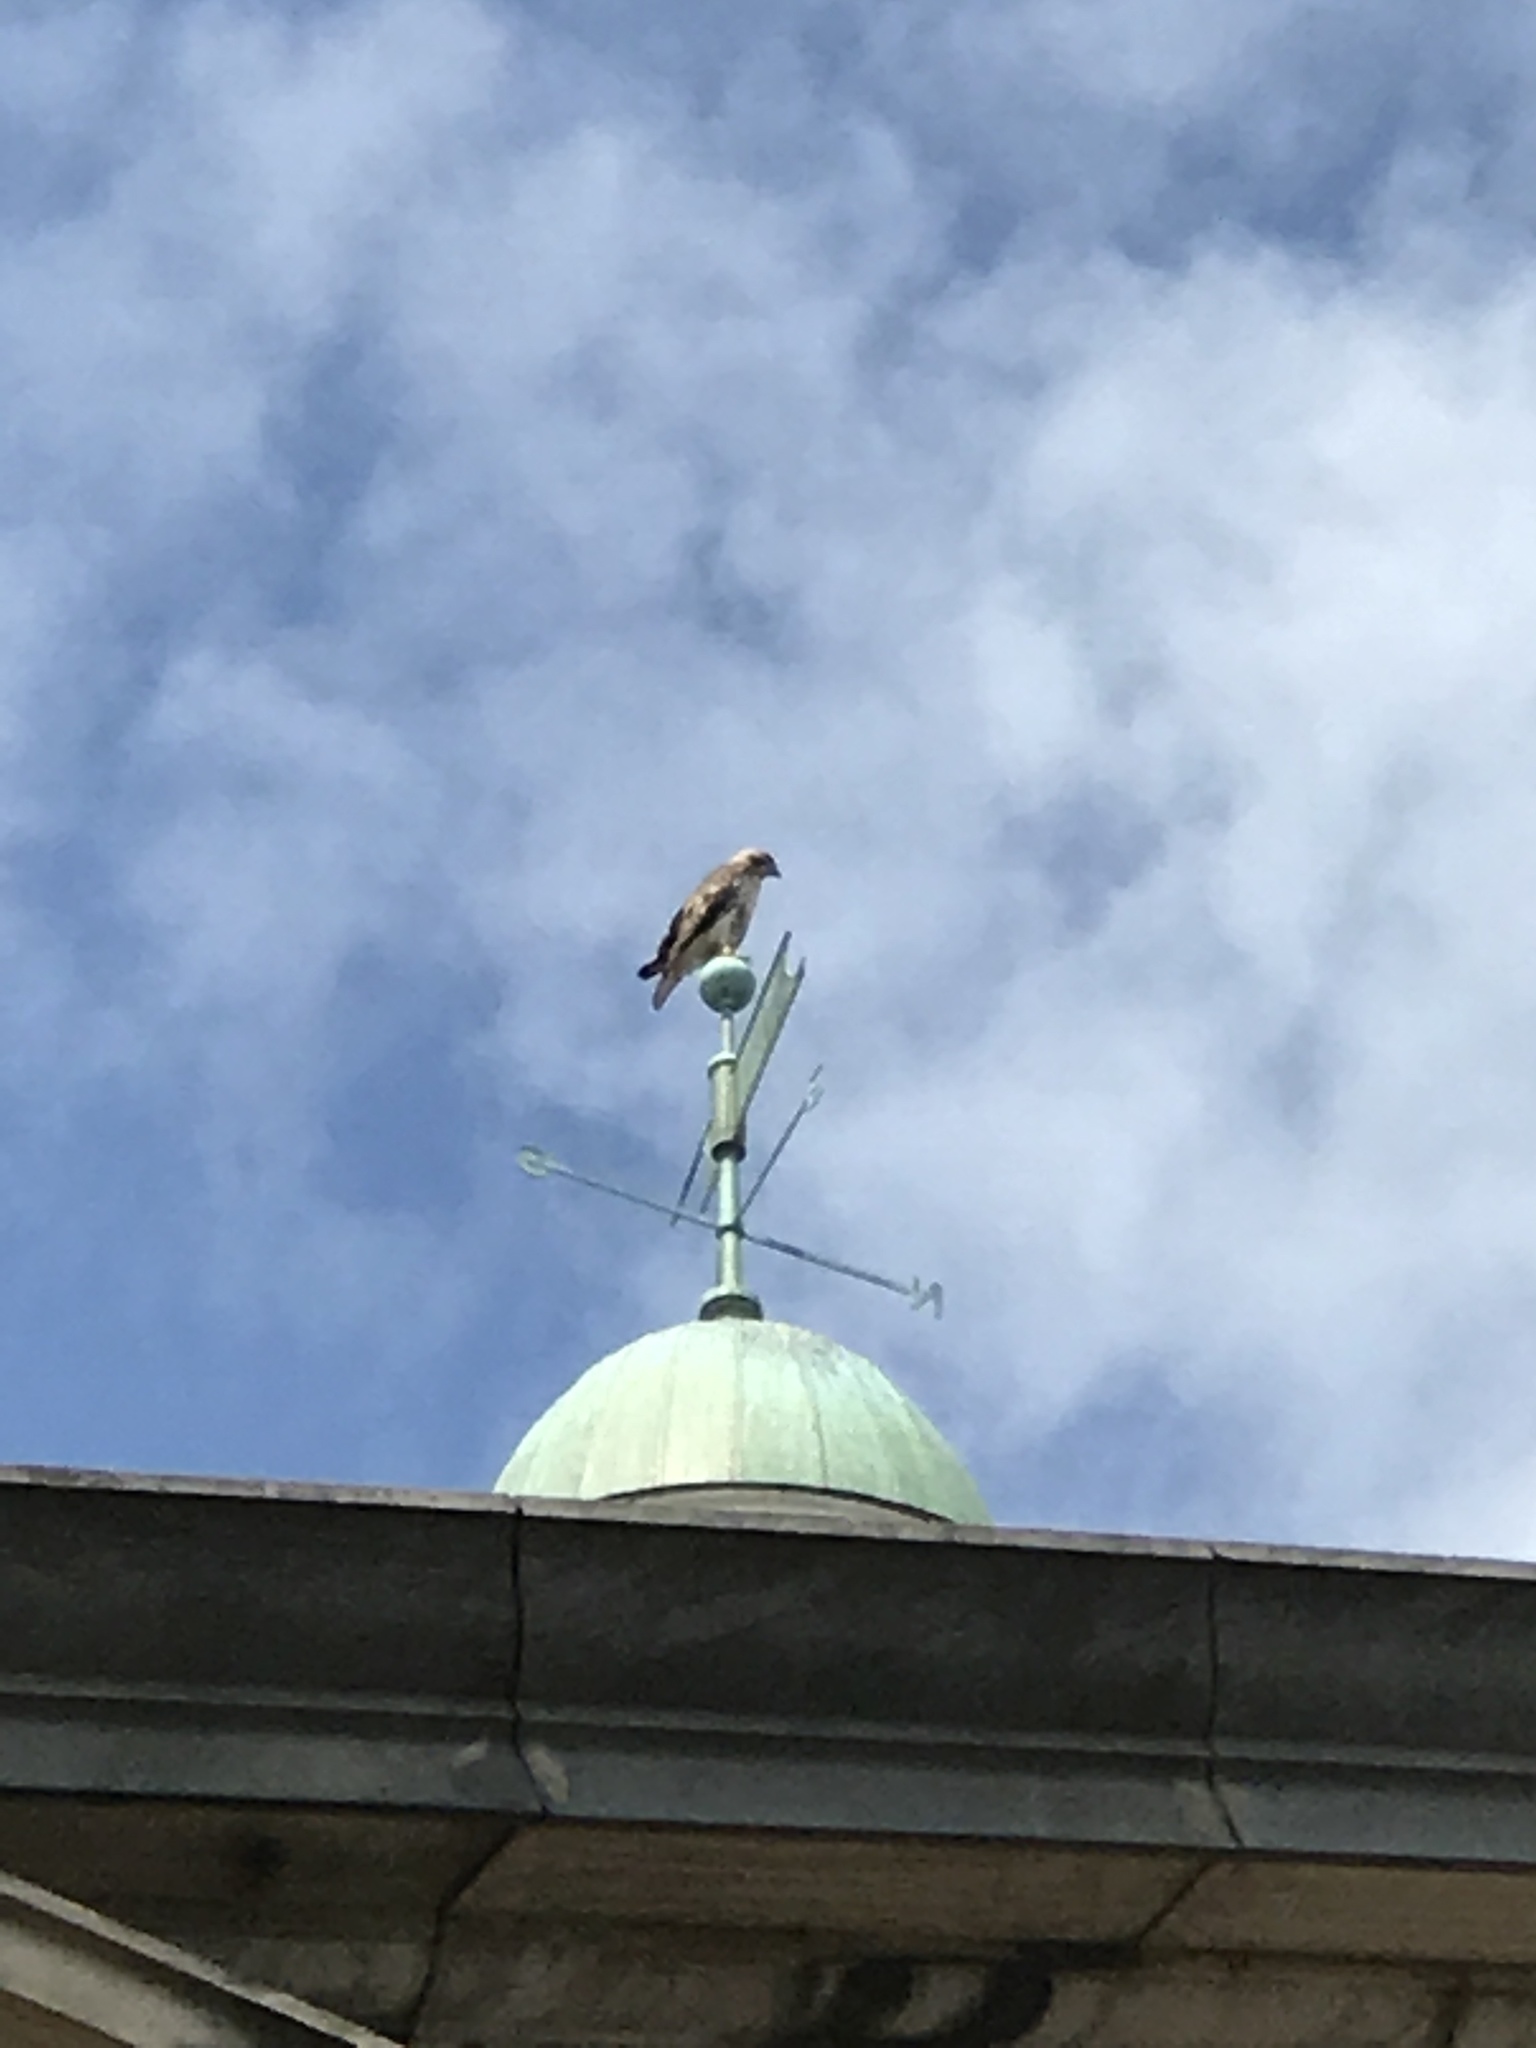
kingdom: Animalia
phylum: Chordata
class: Aves
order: Accipitriformes
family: Accipitridae
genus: Buteo
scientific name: Buteo jamaicensis
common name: Red-tailed hawk
